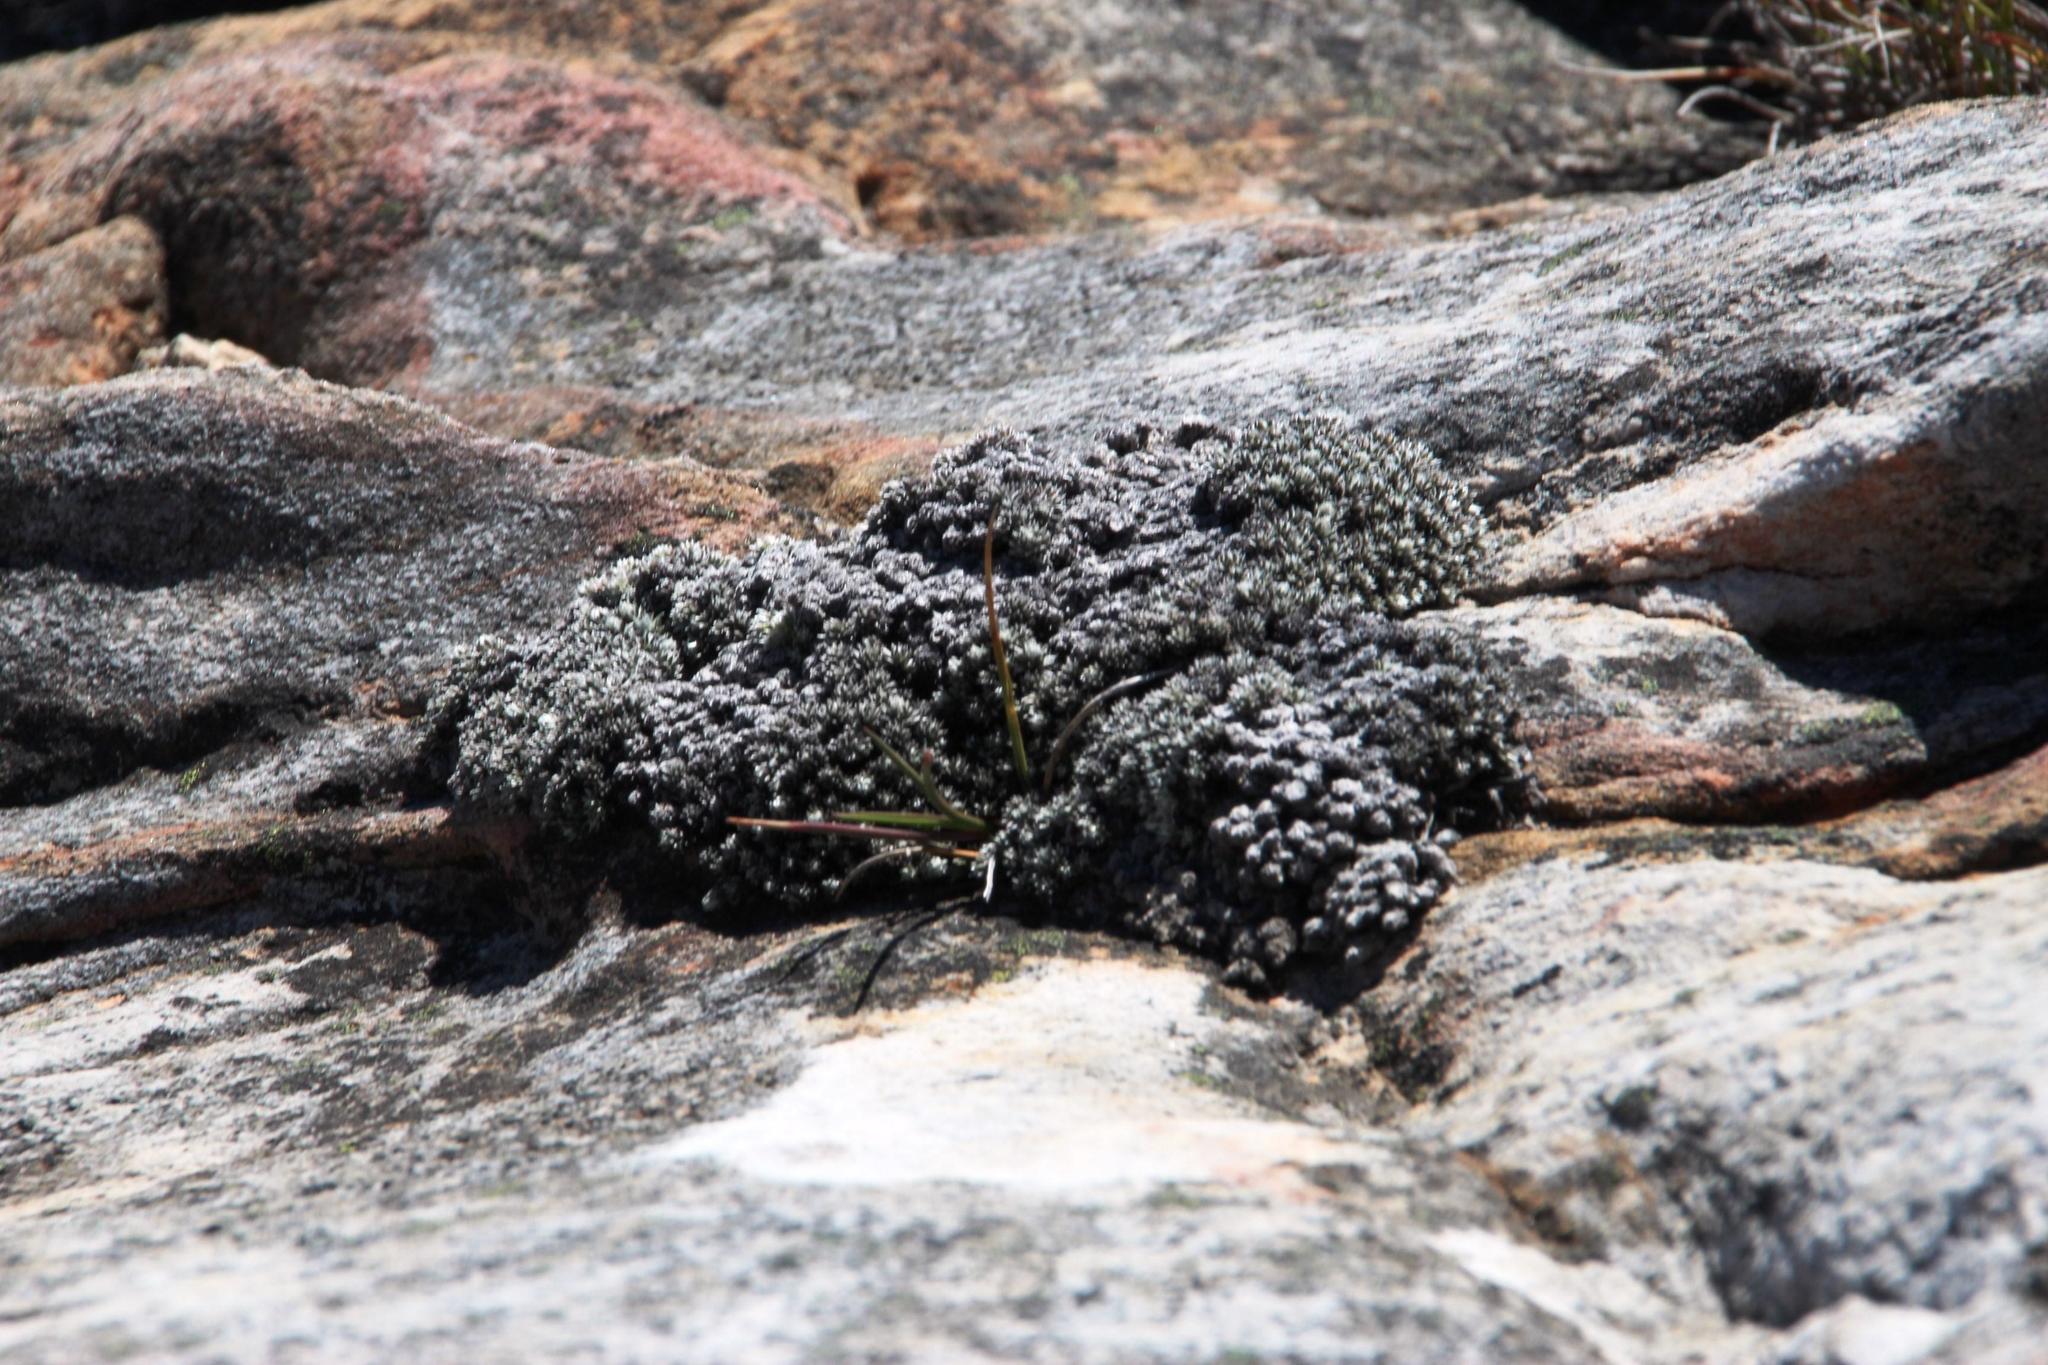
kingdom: Plantae
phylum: Tracheophyta
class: Magnoliopsida
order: Asterales
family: Asteraceae
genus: Muscosomorphe
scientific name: Muscosomorphe aretioides
